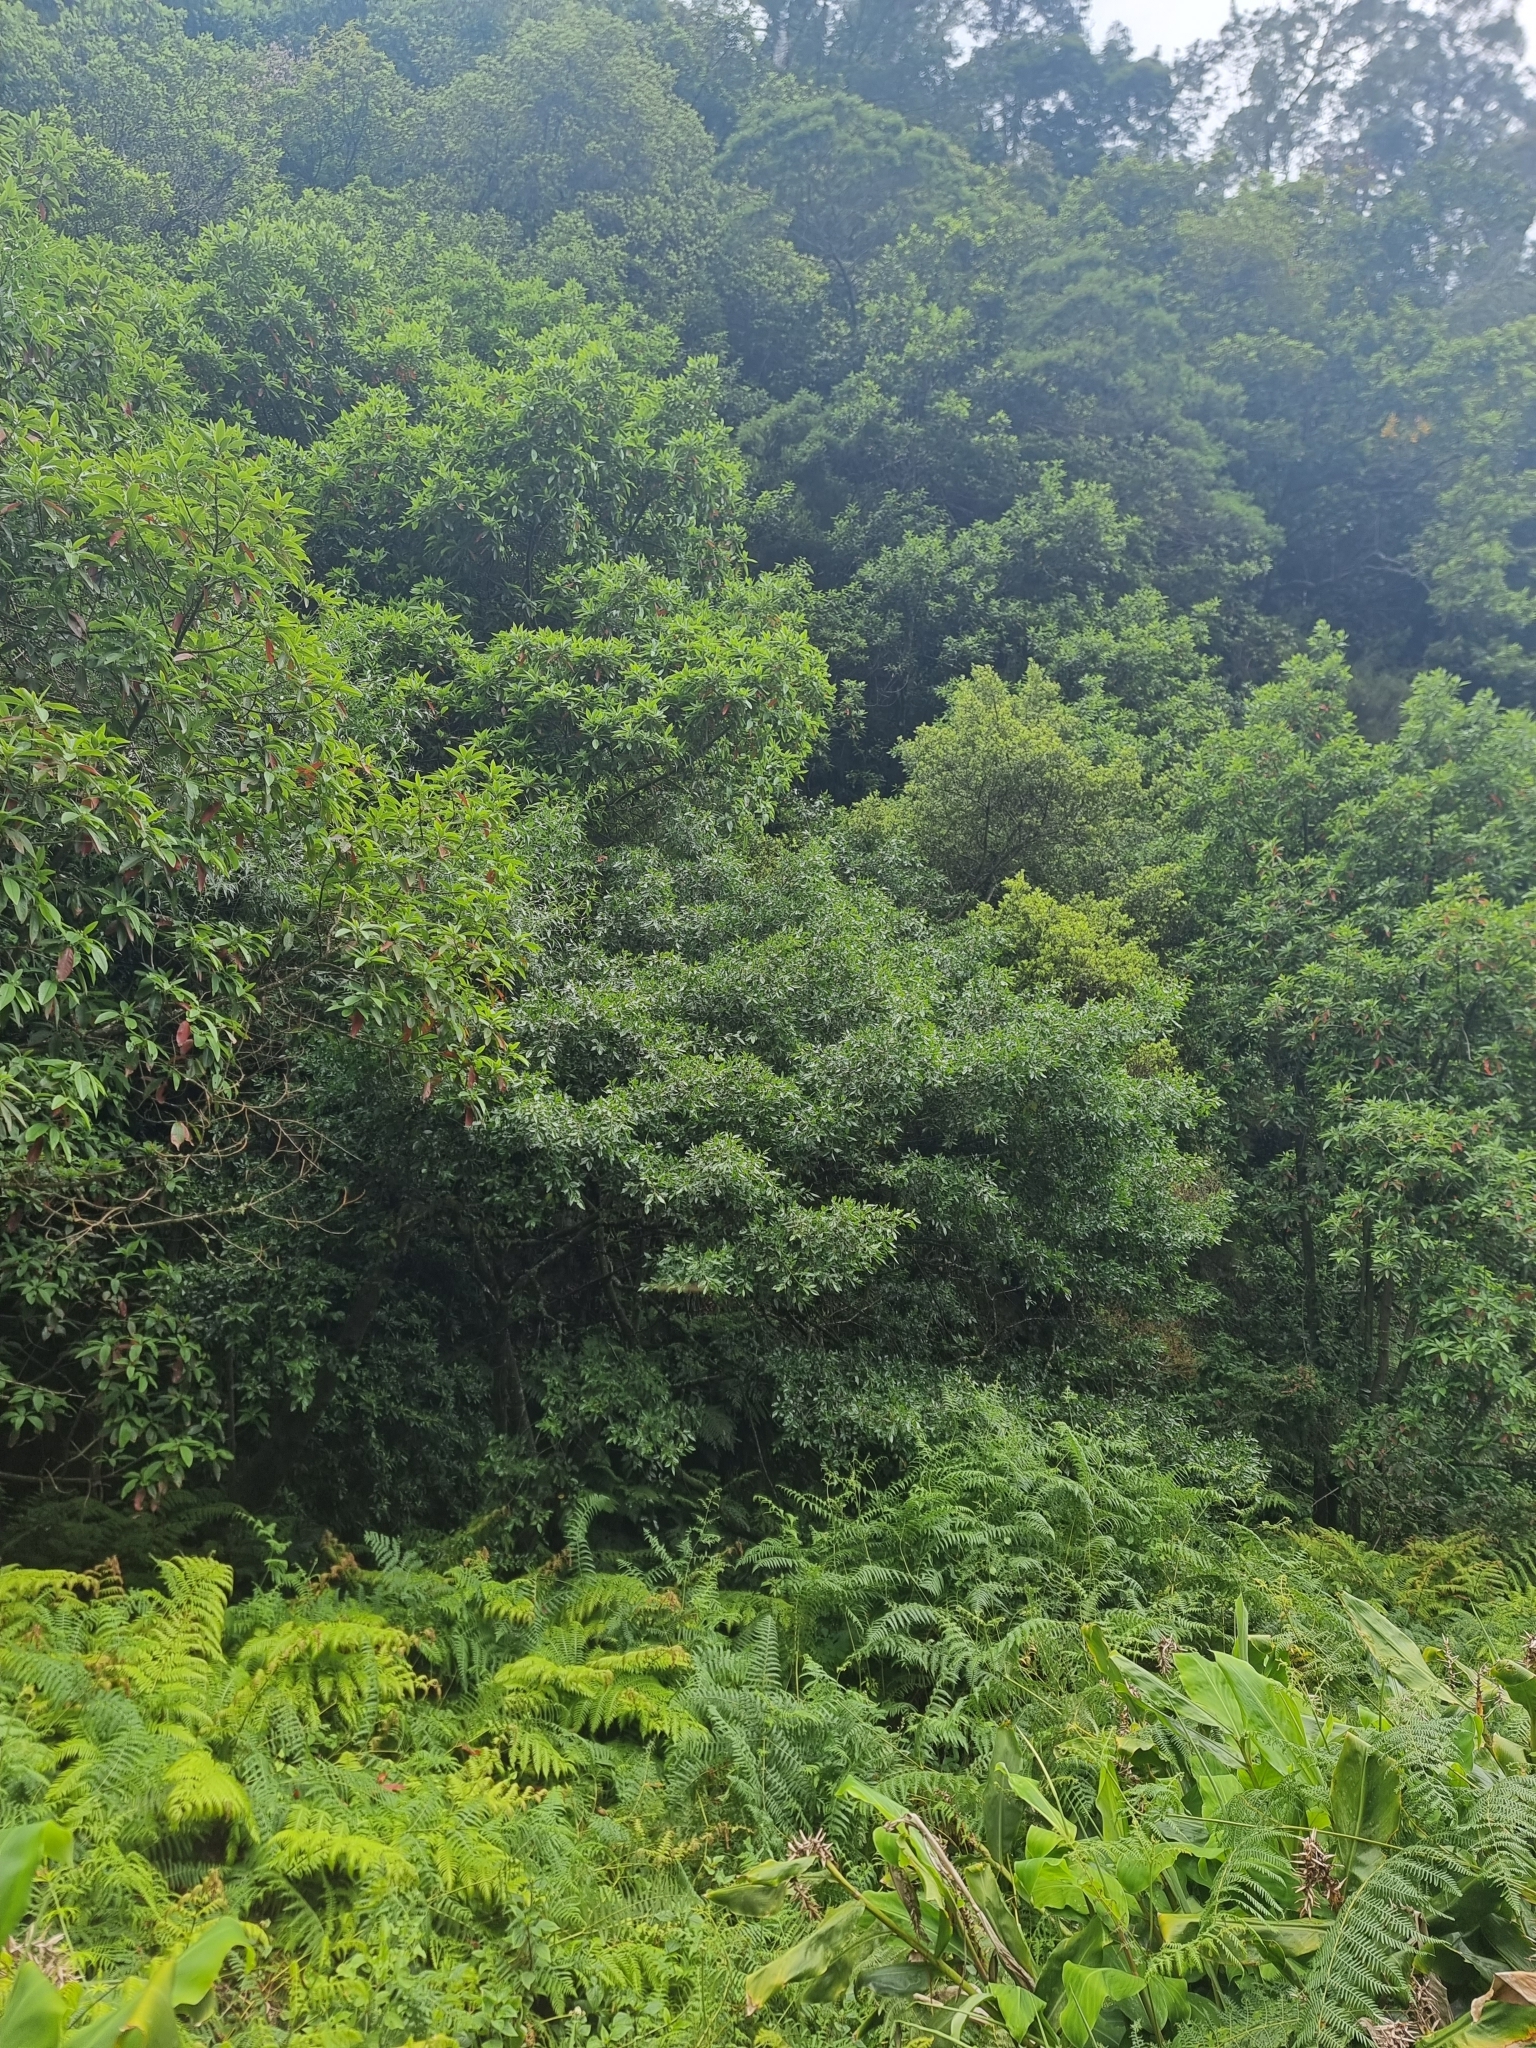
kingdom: Plantae
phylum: Tracheophyta
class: Magnoliopsida
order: Rosales
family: Rhamnaceae
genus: Rhamnus
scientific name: Rhamnus glandulosa
